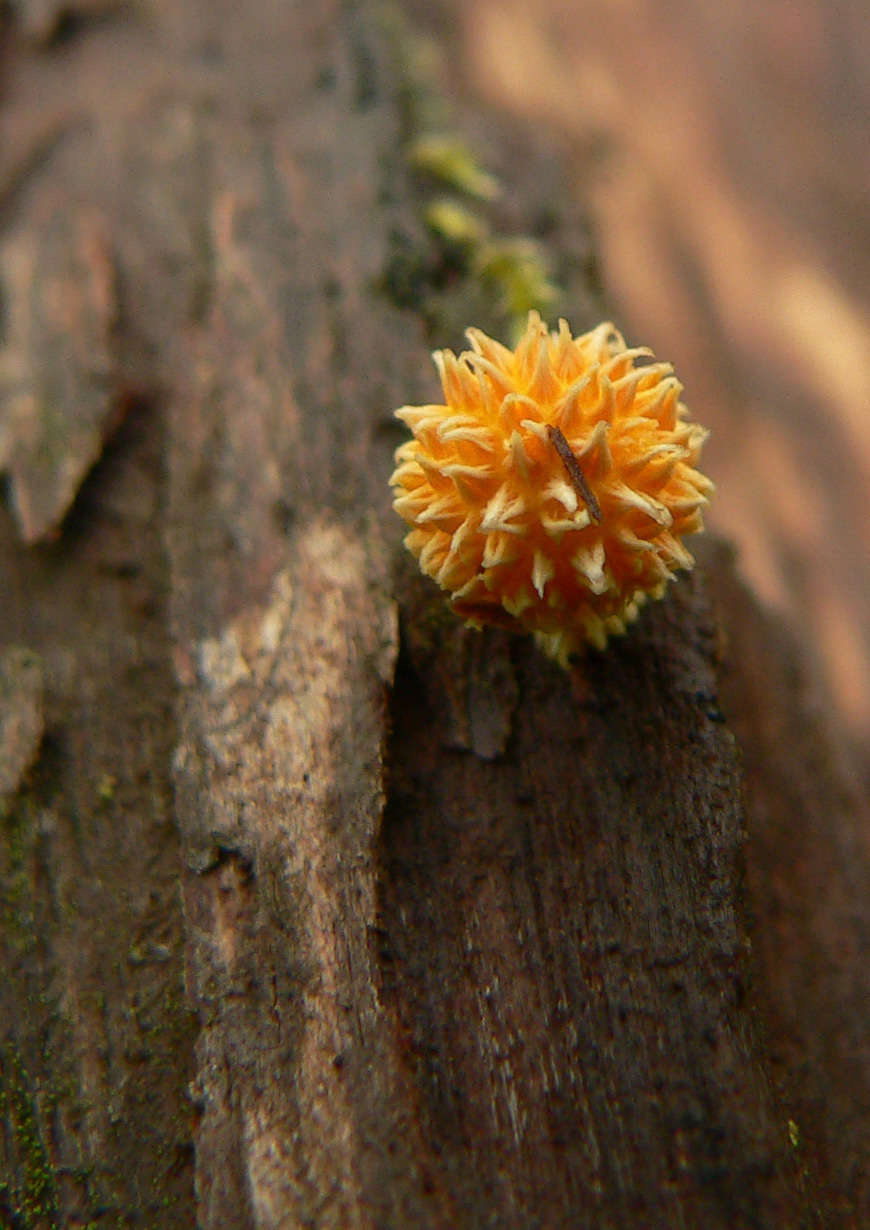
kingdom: Fungi
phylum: Basidiomycota
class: Agaricomycetes
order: Agaricales
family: Physalacriaceae
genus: Cyptotrama
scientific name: Cyptotrama asprata
